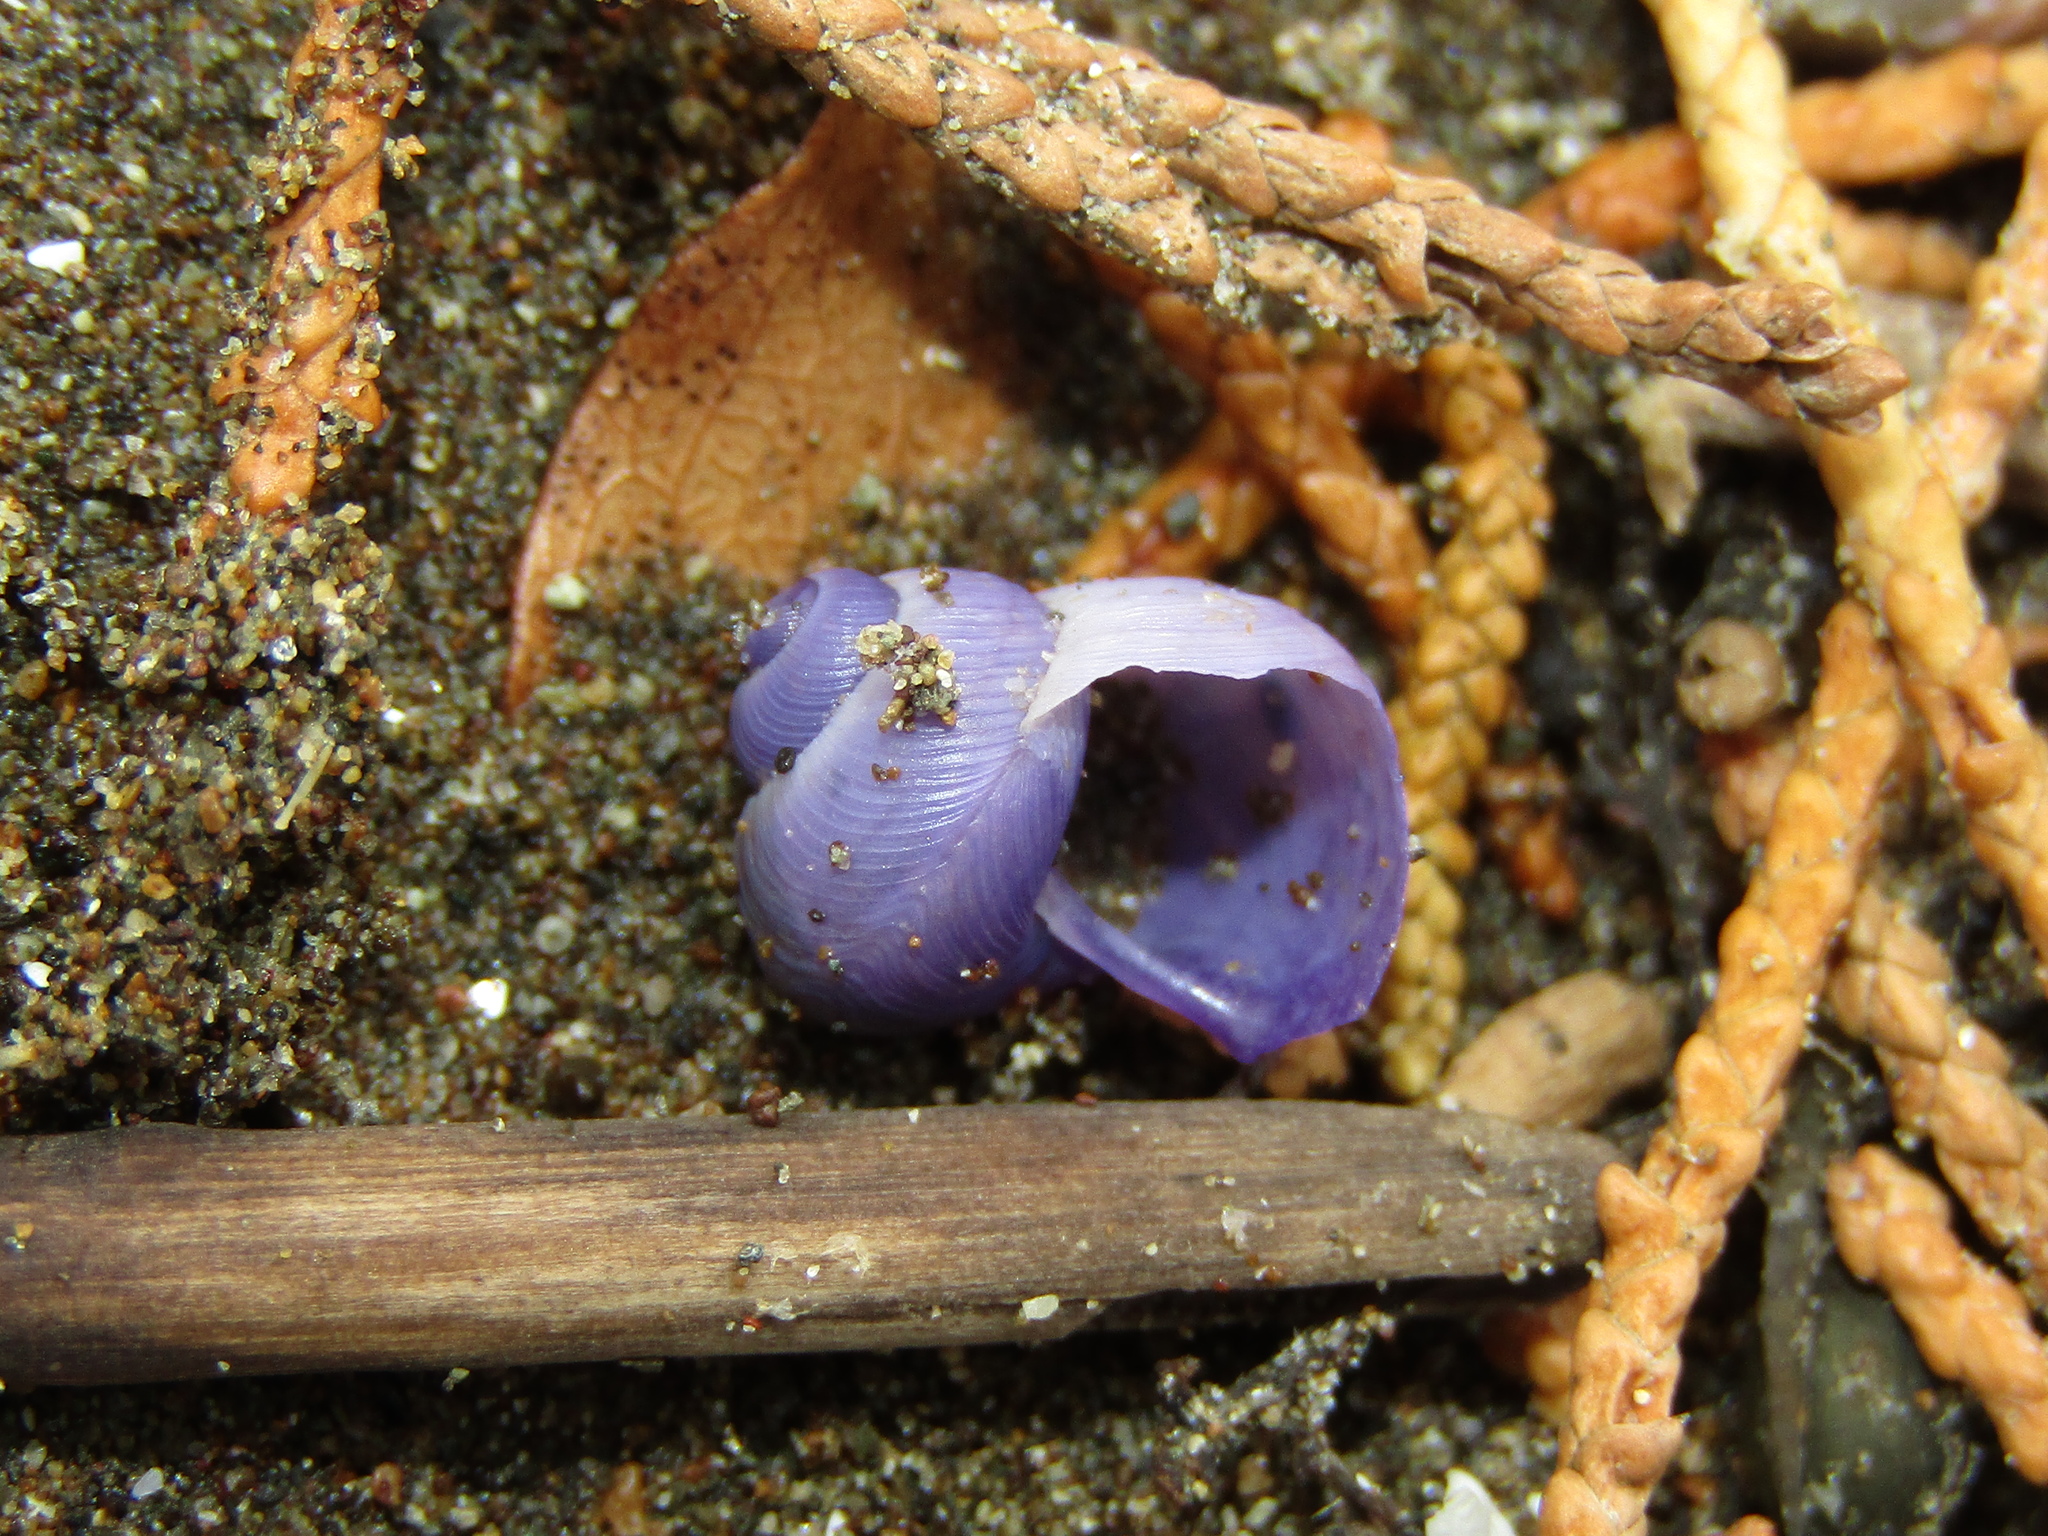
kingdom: Animalia
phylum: Mollusca
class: Gastropoda
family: Epitoniidae
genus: Janthina
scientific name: Janthina exigua
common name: Dwarf janthina
